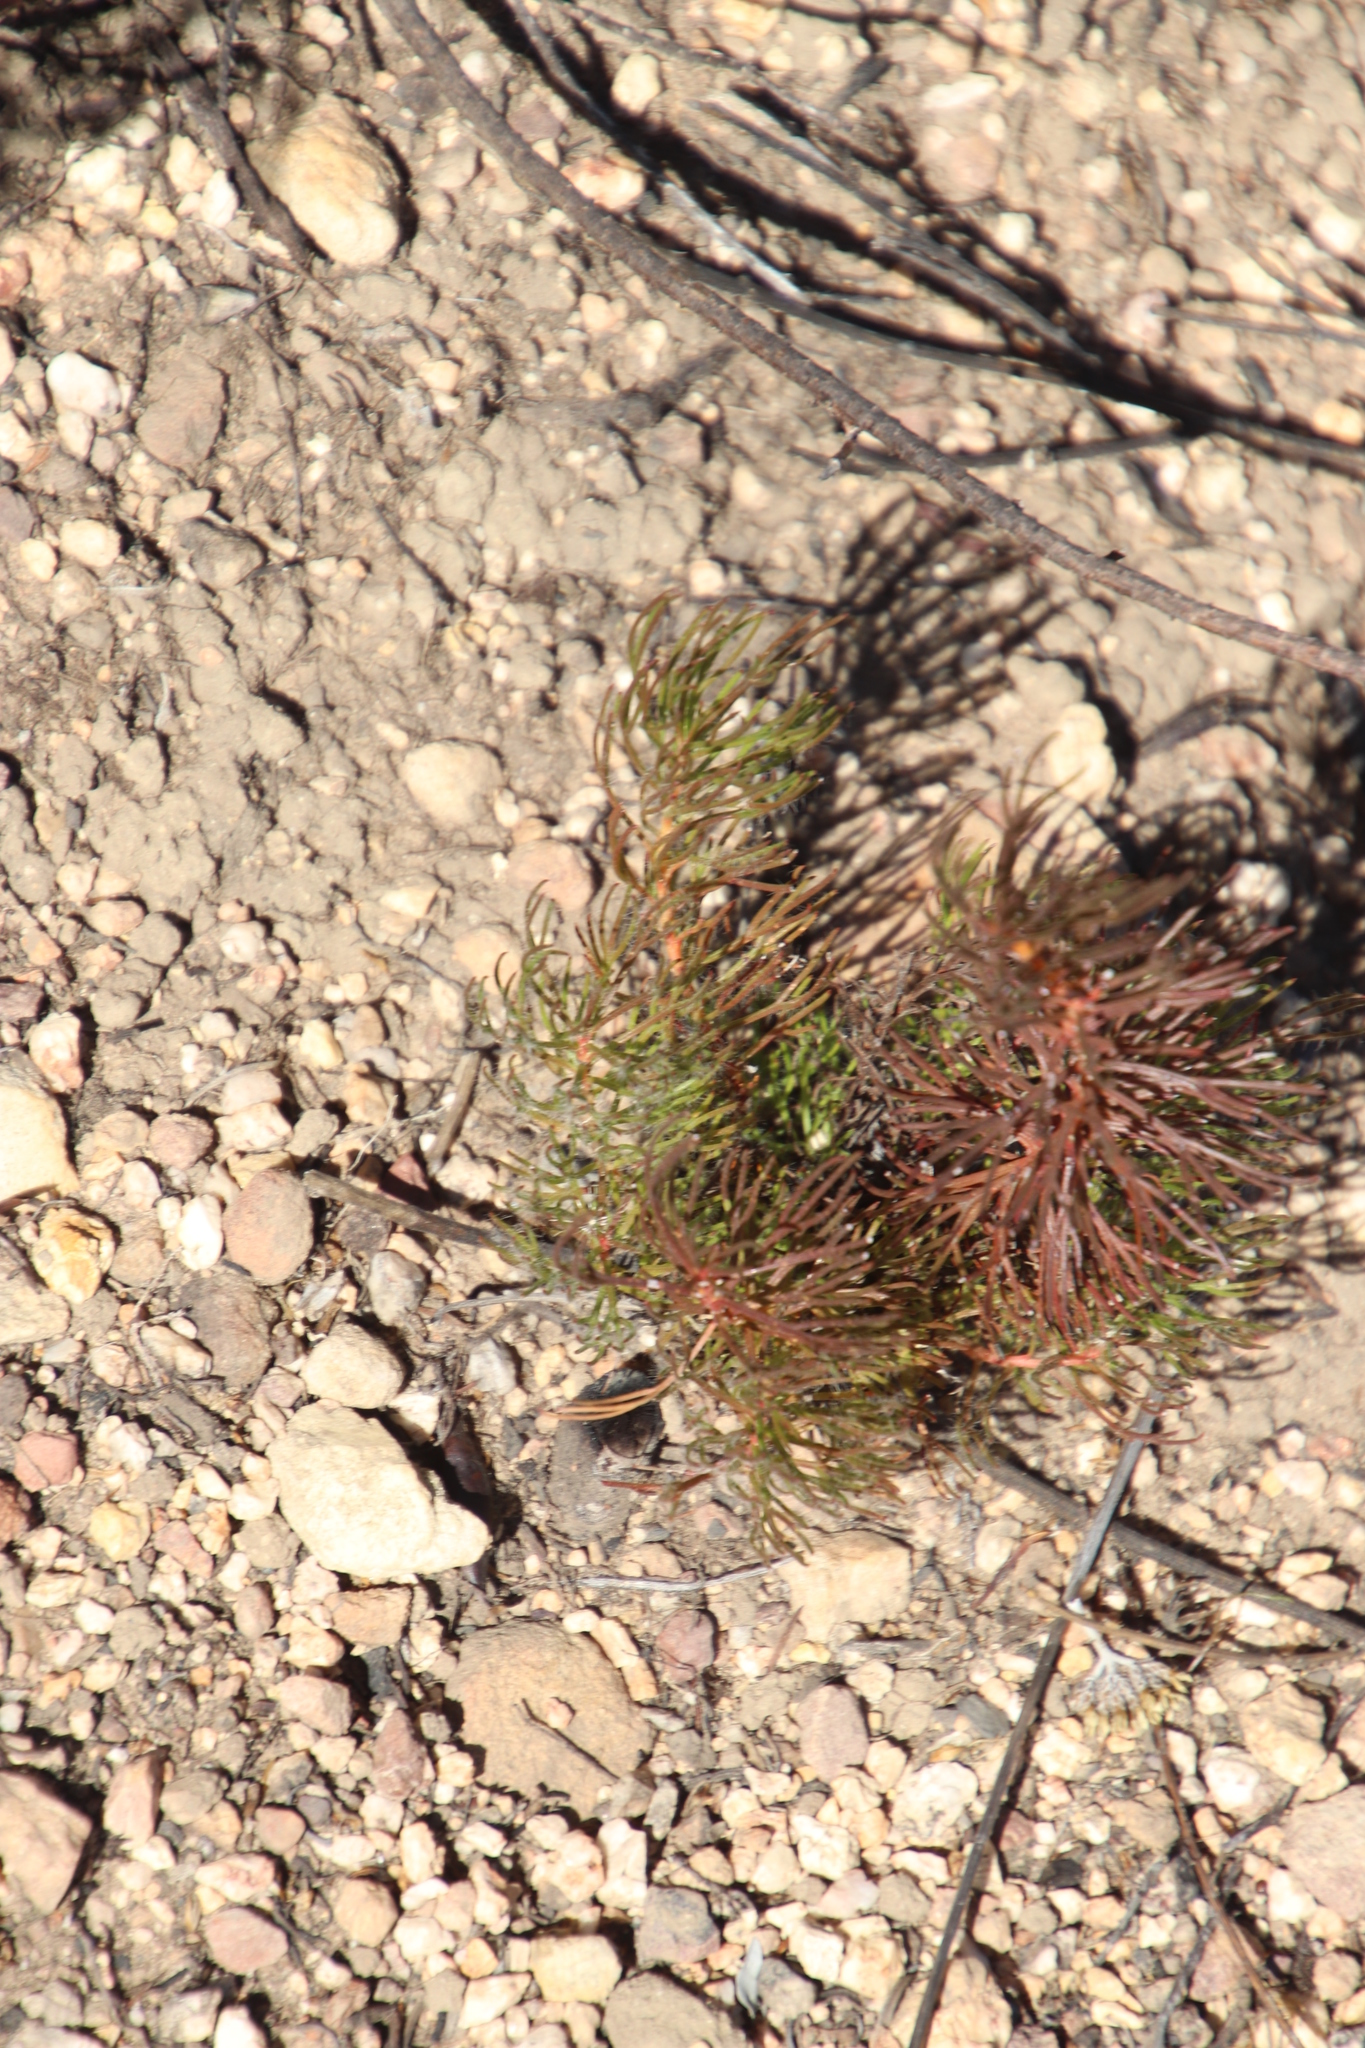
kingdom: Plantae
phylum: Tracheophyta
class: Magnoliopsida
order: Proteales
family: Proteaceae
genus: Serruria
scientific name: Serruria phylicoides
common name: Bearded spiderhead
